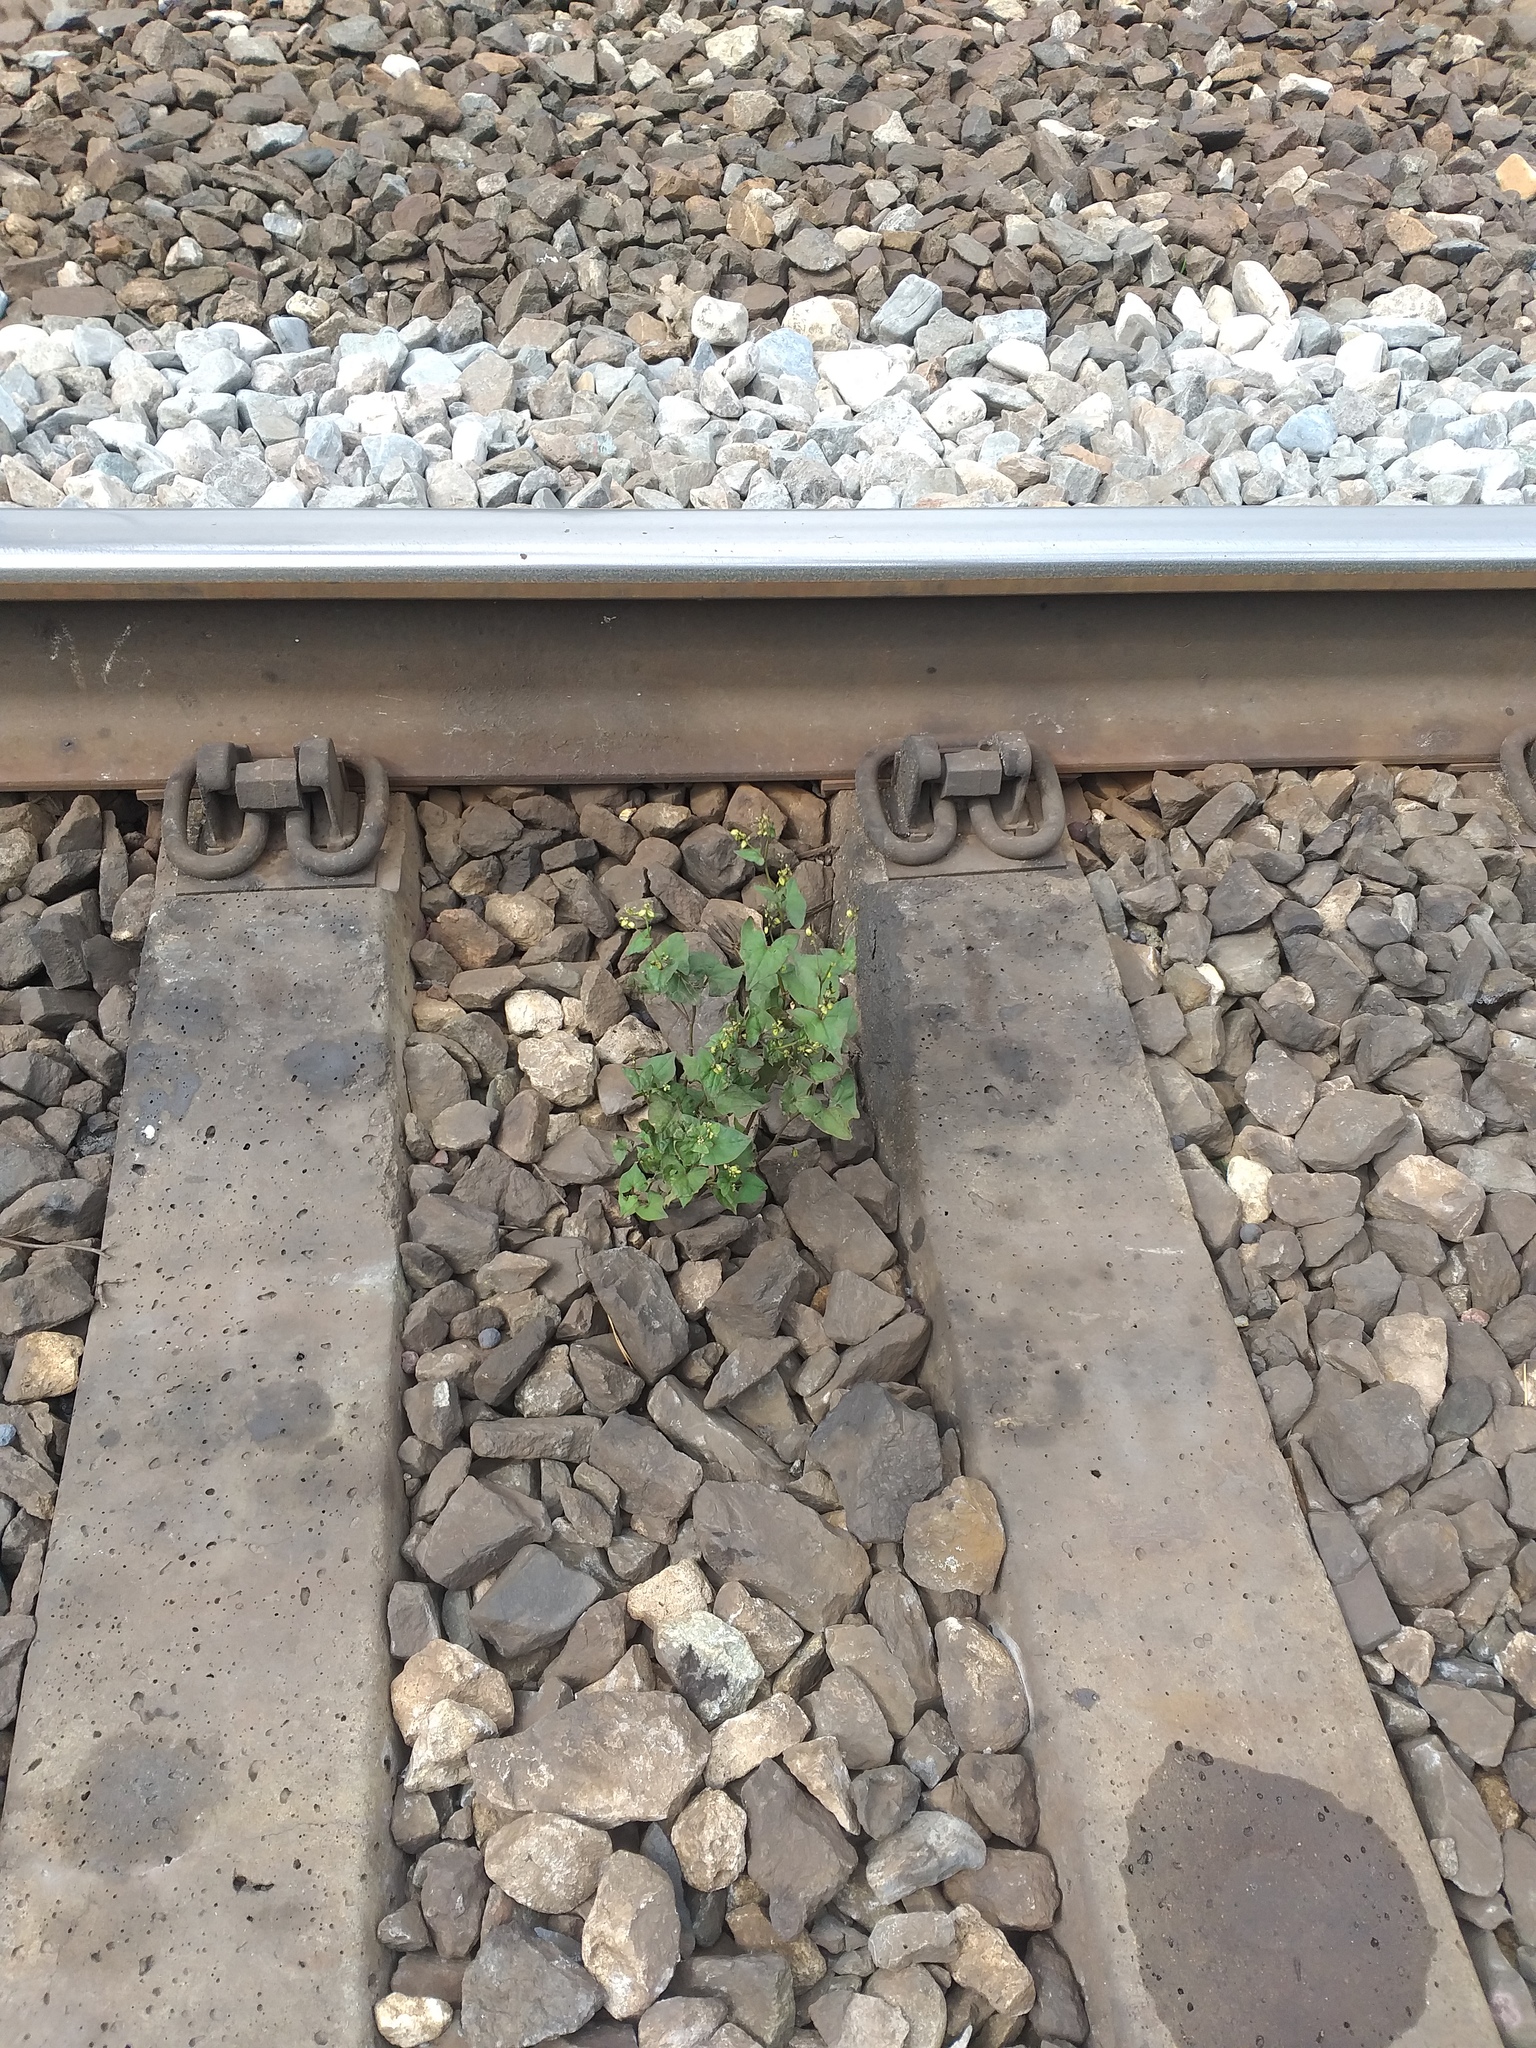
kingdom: Plantae
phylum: Tracheophyta
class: Magnoliopsida
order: Caryophyllales
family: Polygonaceae
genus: Fagopyrum
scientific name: Fagopyrum tataricum
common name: Green buckwheat
